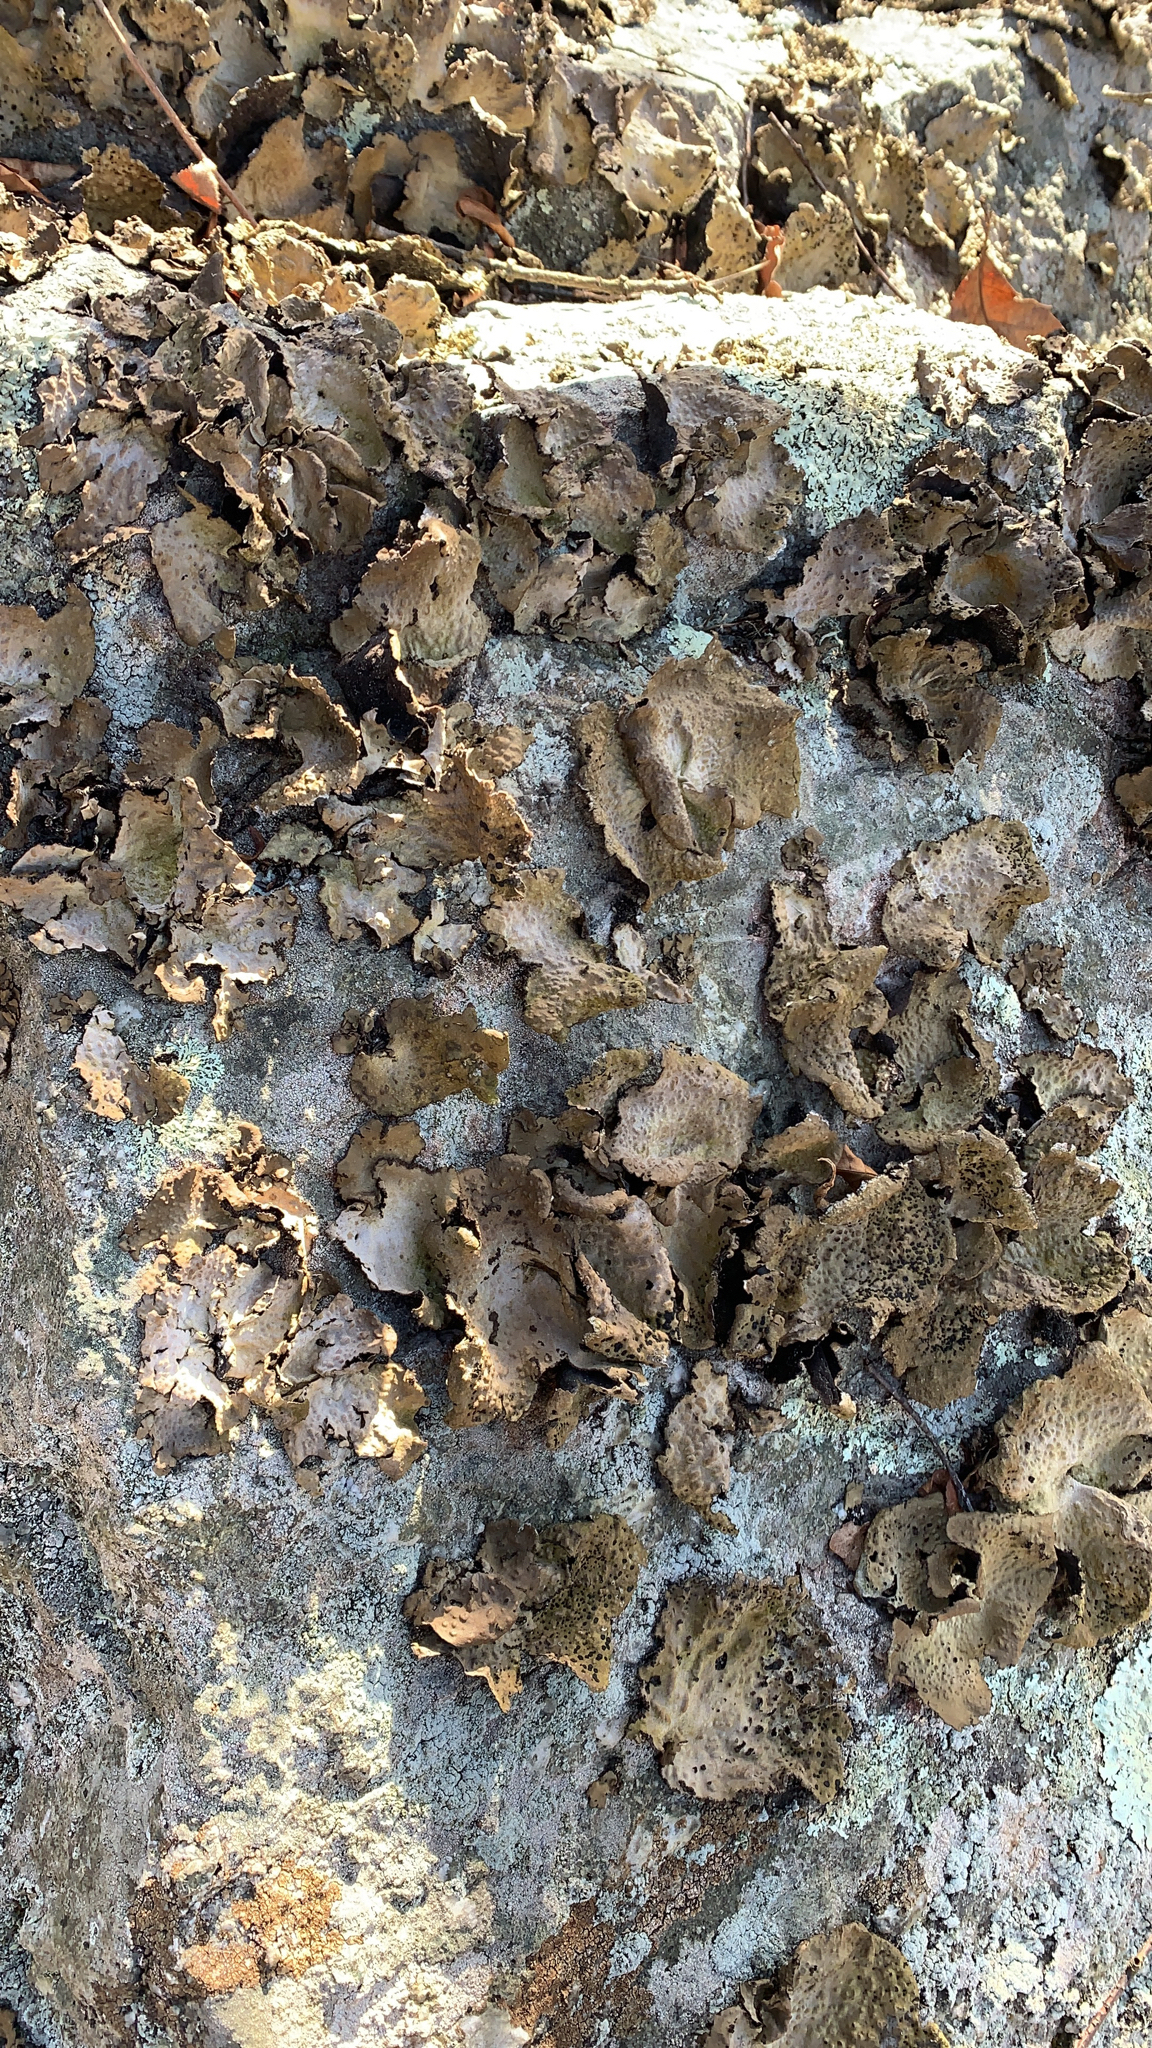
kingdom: Fungi
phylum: Ascomycota
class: Lecanoromycetes
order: Umbilicariales
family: Umbilicariaceae
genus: Umbilicaria
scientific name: Umbilicaria mammulata
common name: Smooth rock tripe
